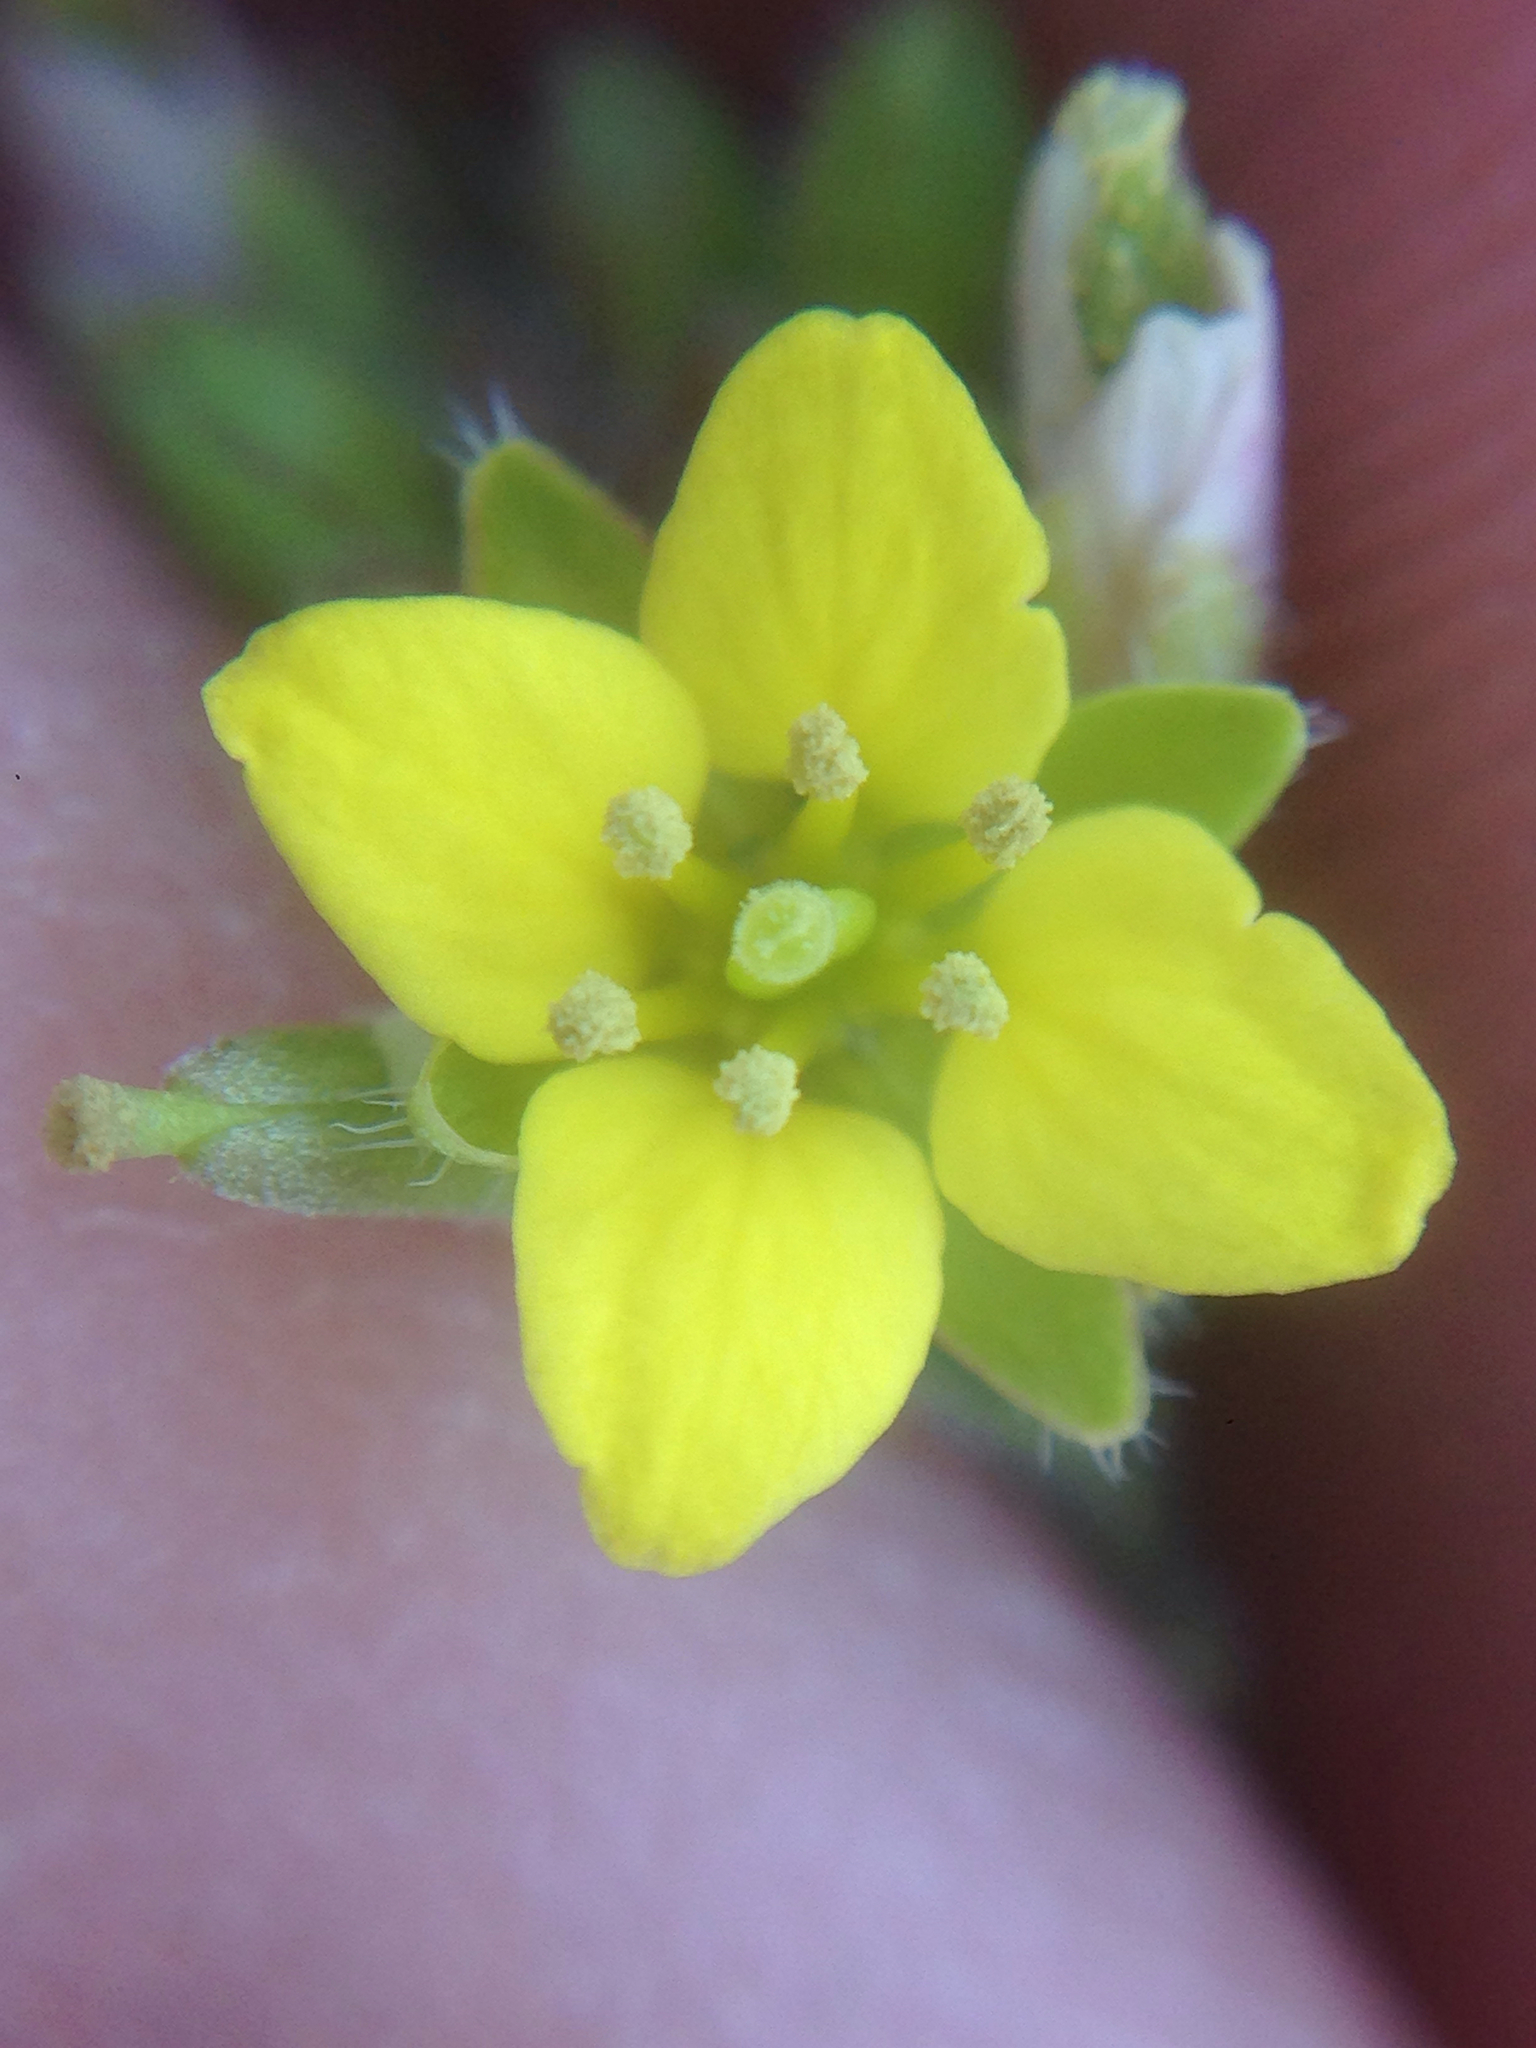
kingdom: Plantae
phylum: Tracheophyta
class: Magnoliopsida
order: Brassicales
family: Brassicaceae
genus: Tropidocarpum
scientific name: Tropidocarpum gracile
